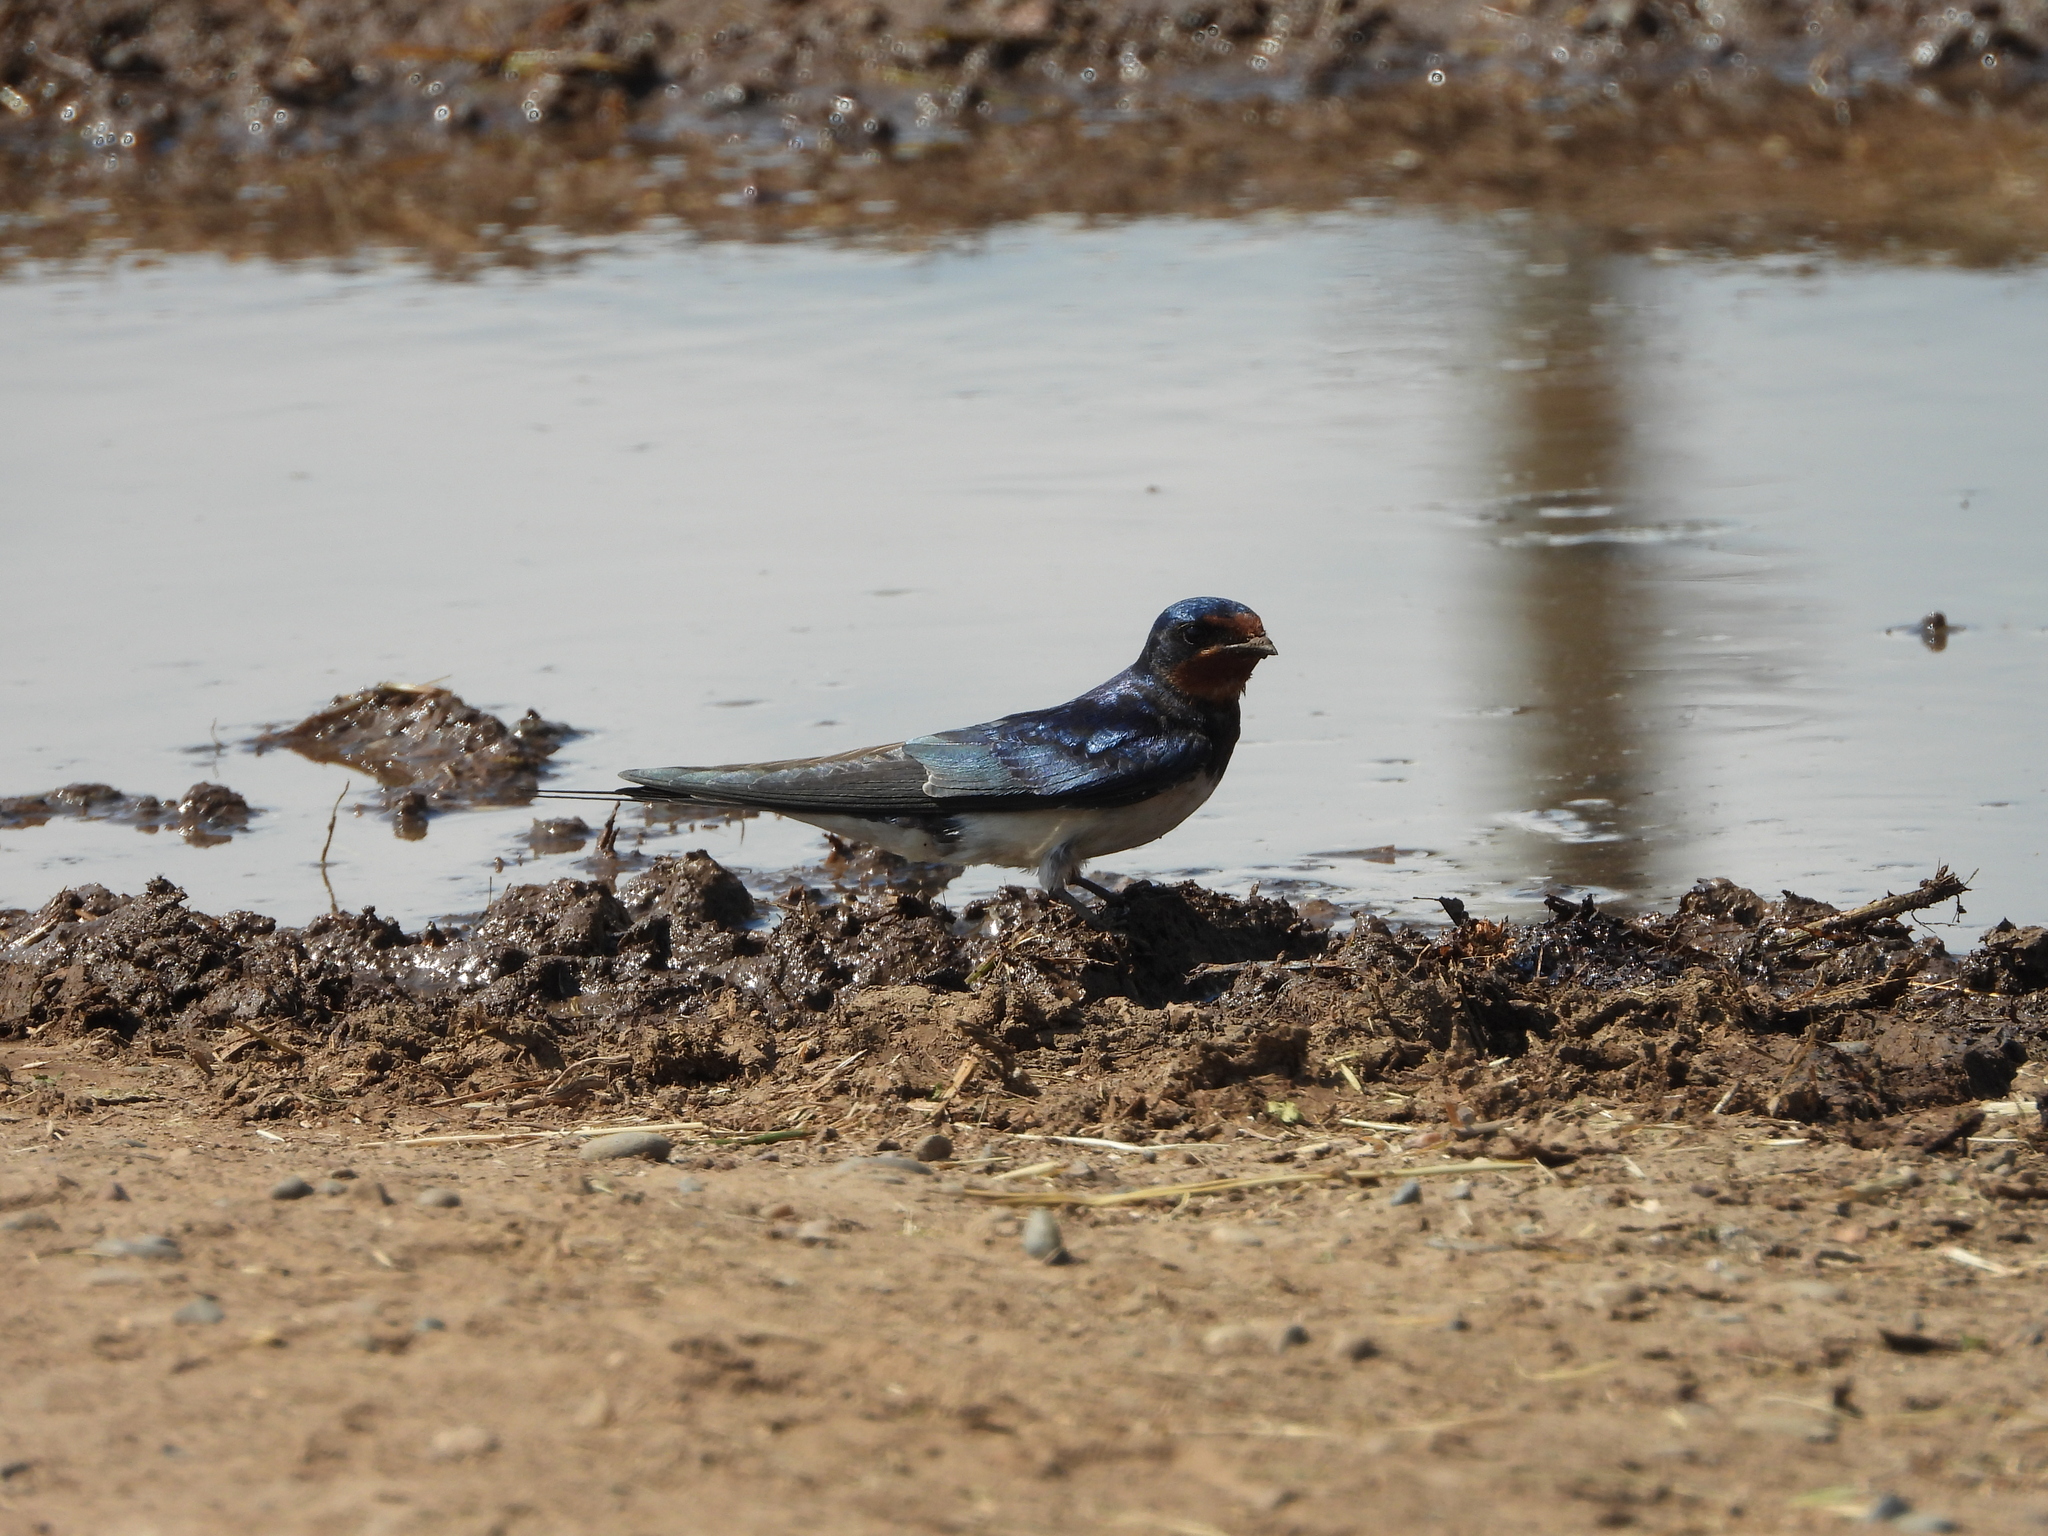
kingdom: Animalia
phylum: Chordata
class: Aves
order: Passeriformes
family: Hirundinidae
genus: Hirundo
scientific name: Hirundo rustica
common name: Barn swallow
